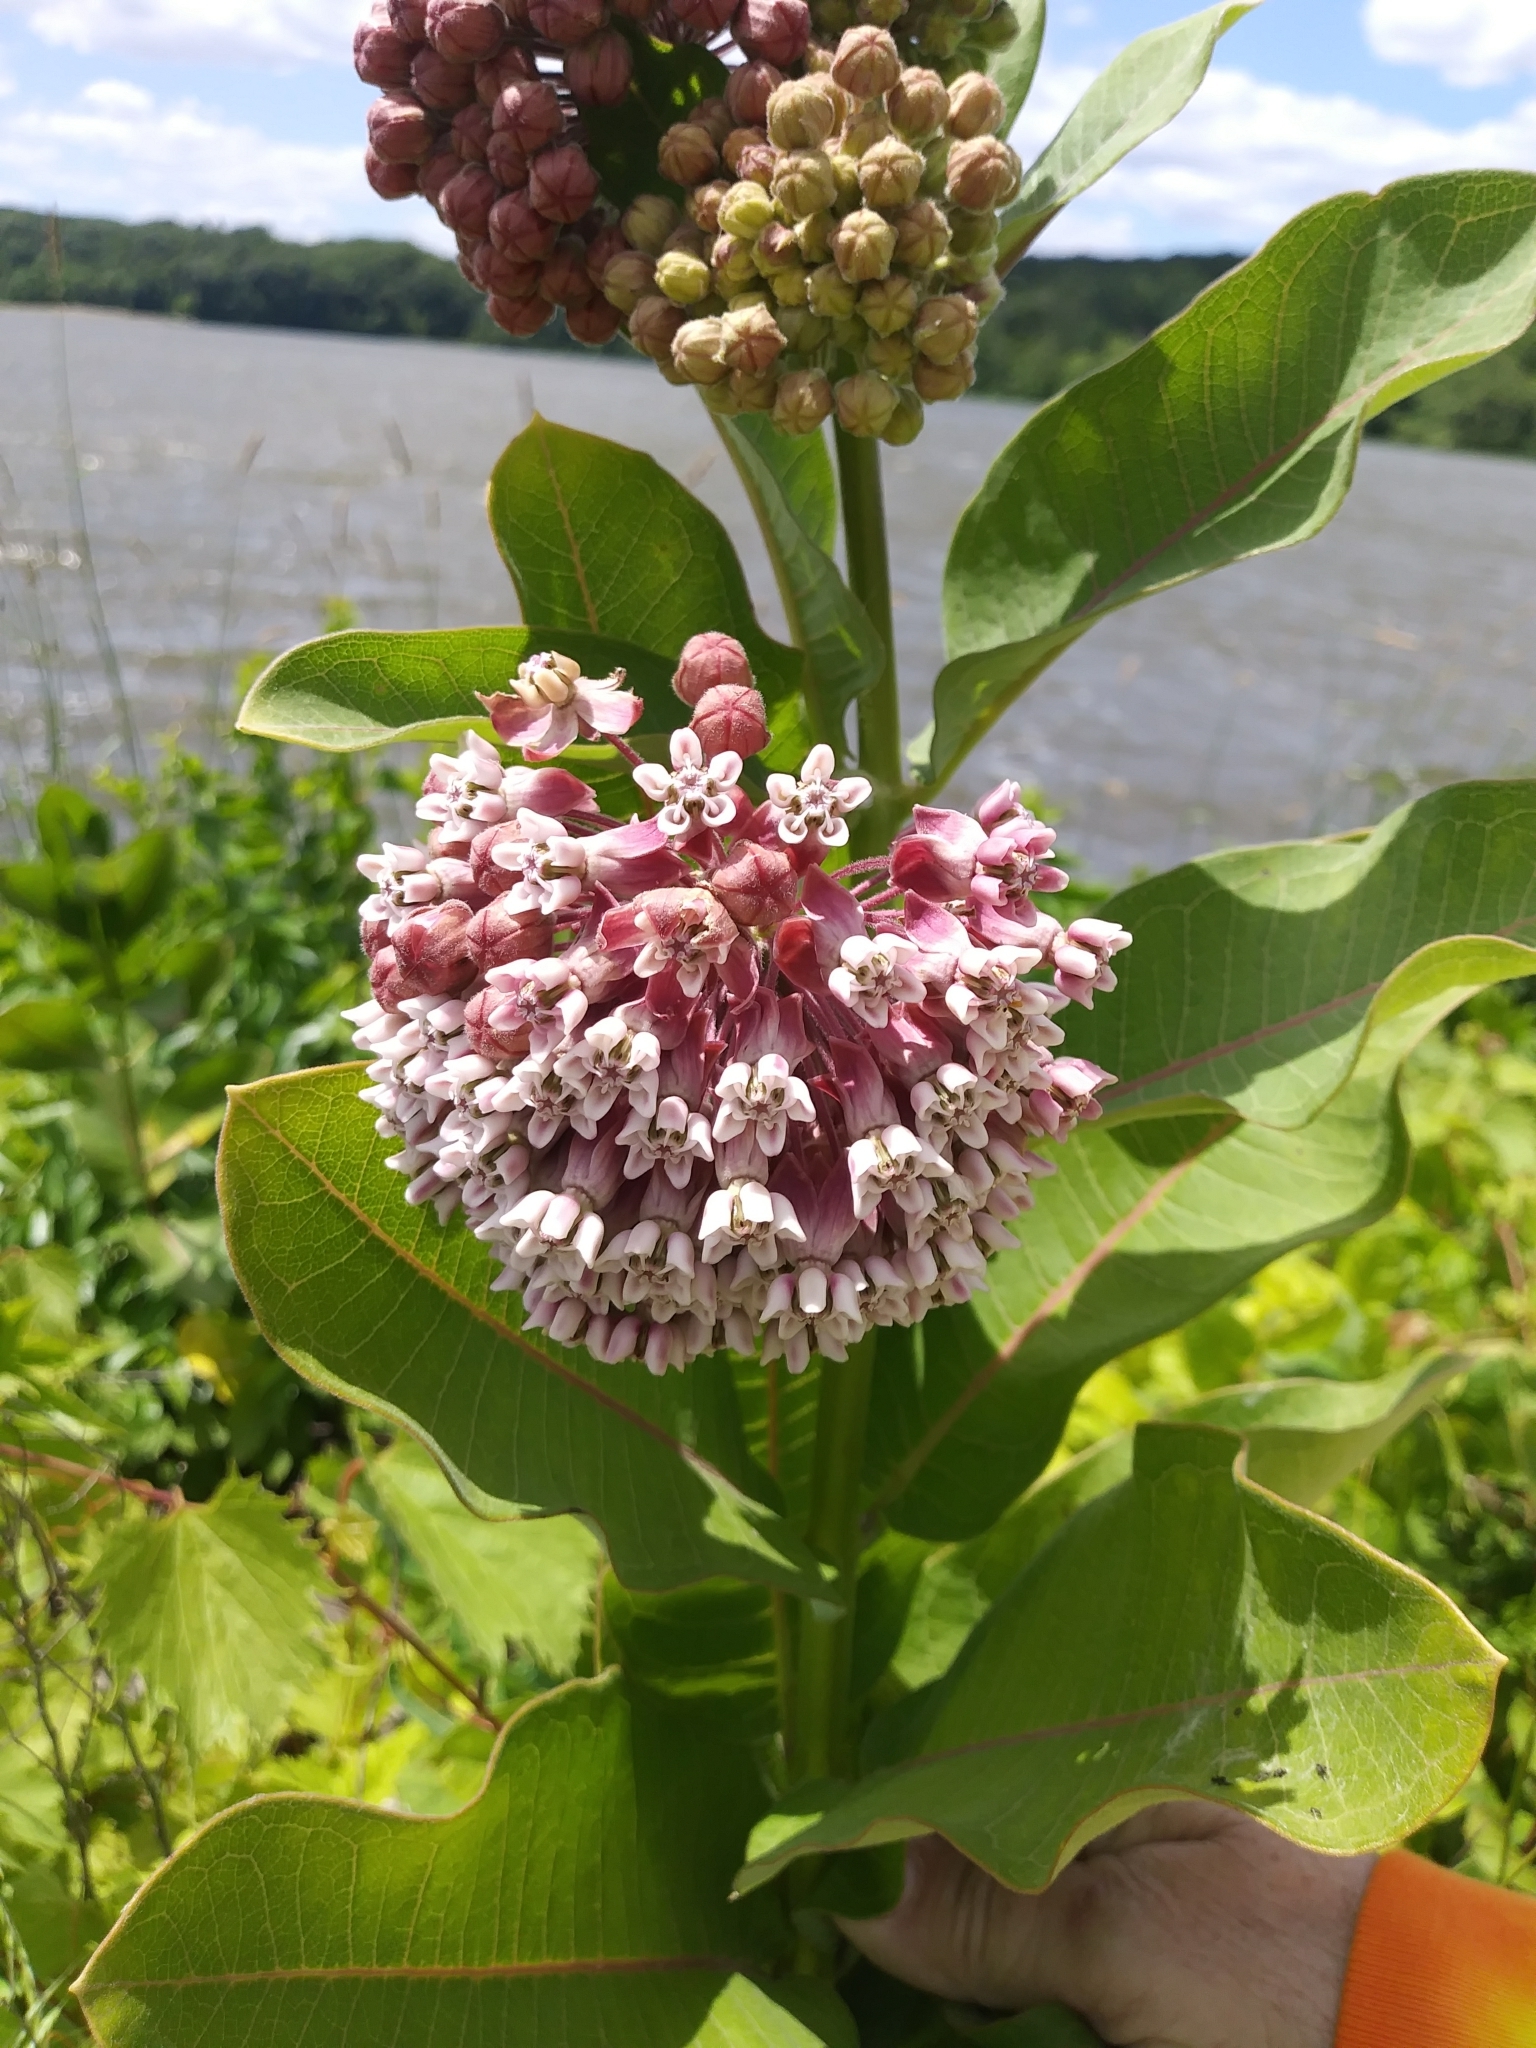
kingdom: Plantae
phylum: Tracheophyta
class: Magnoliopsida
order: Gentianales
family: Apocynaceae
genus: Asclepias
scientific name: Asclepias syriaca
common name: Common milkweed
